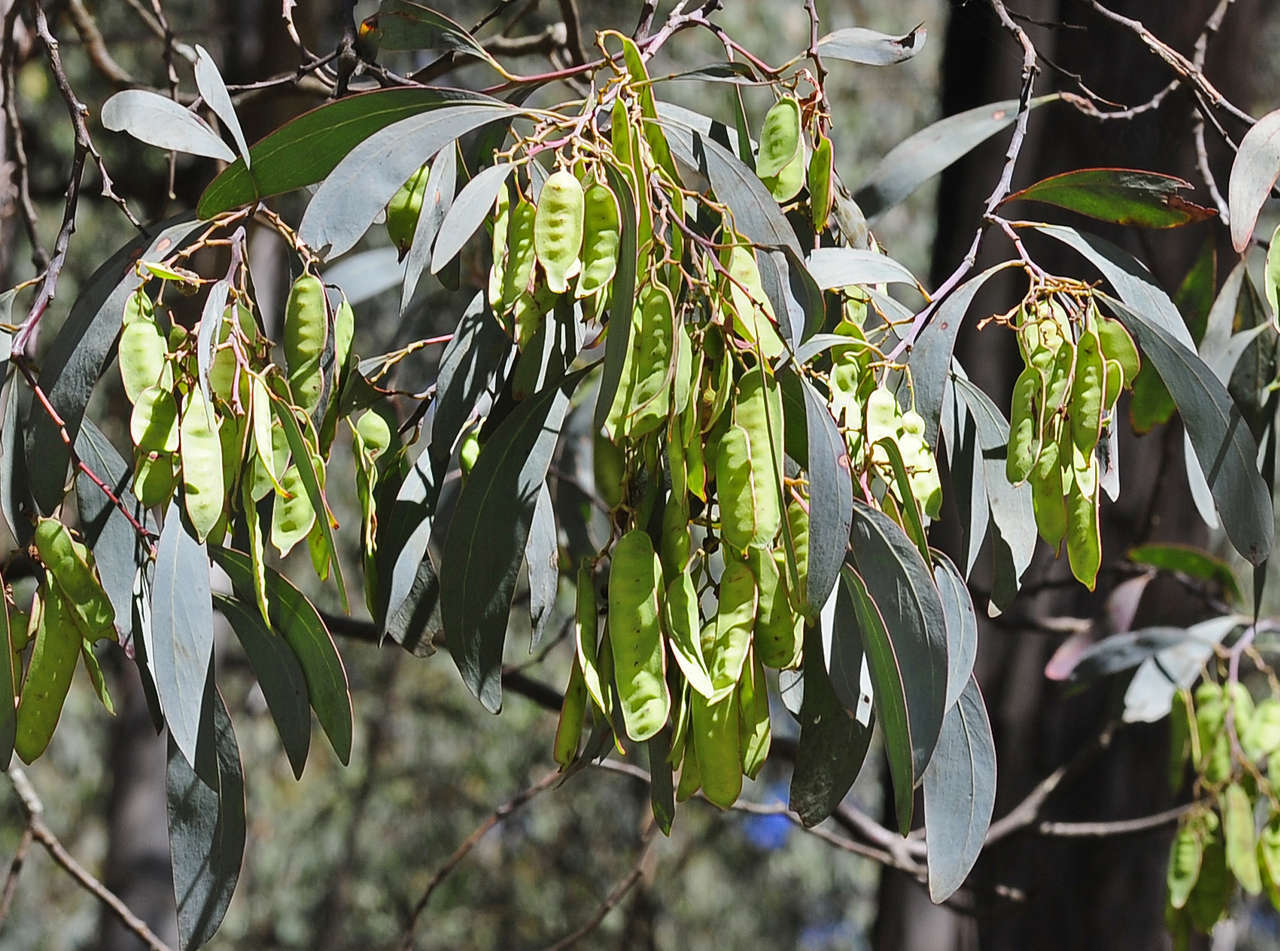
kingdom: Plantae
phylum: Tracheophyta
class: Magnoliopsida
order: Fabales
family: Fabaceae
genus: Acacia
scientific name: Acacia obliquinervia
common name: Mountain hickory wattle
